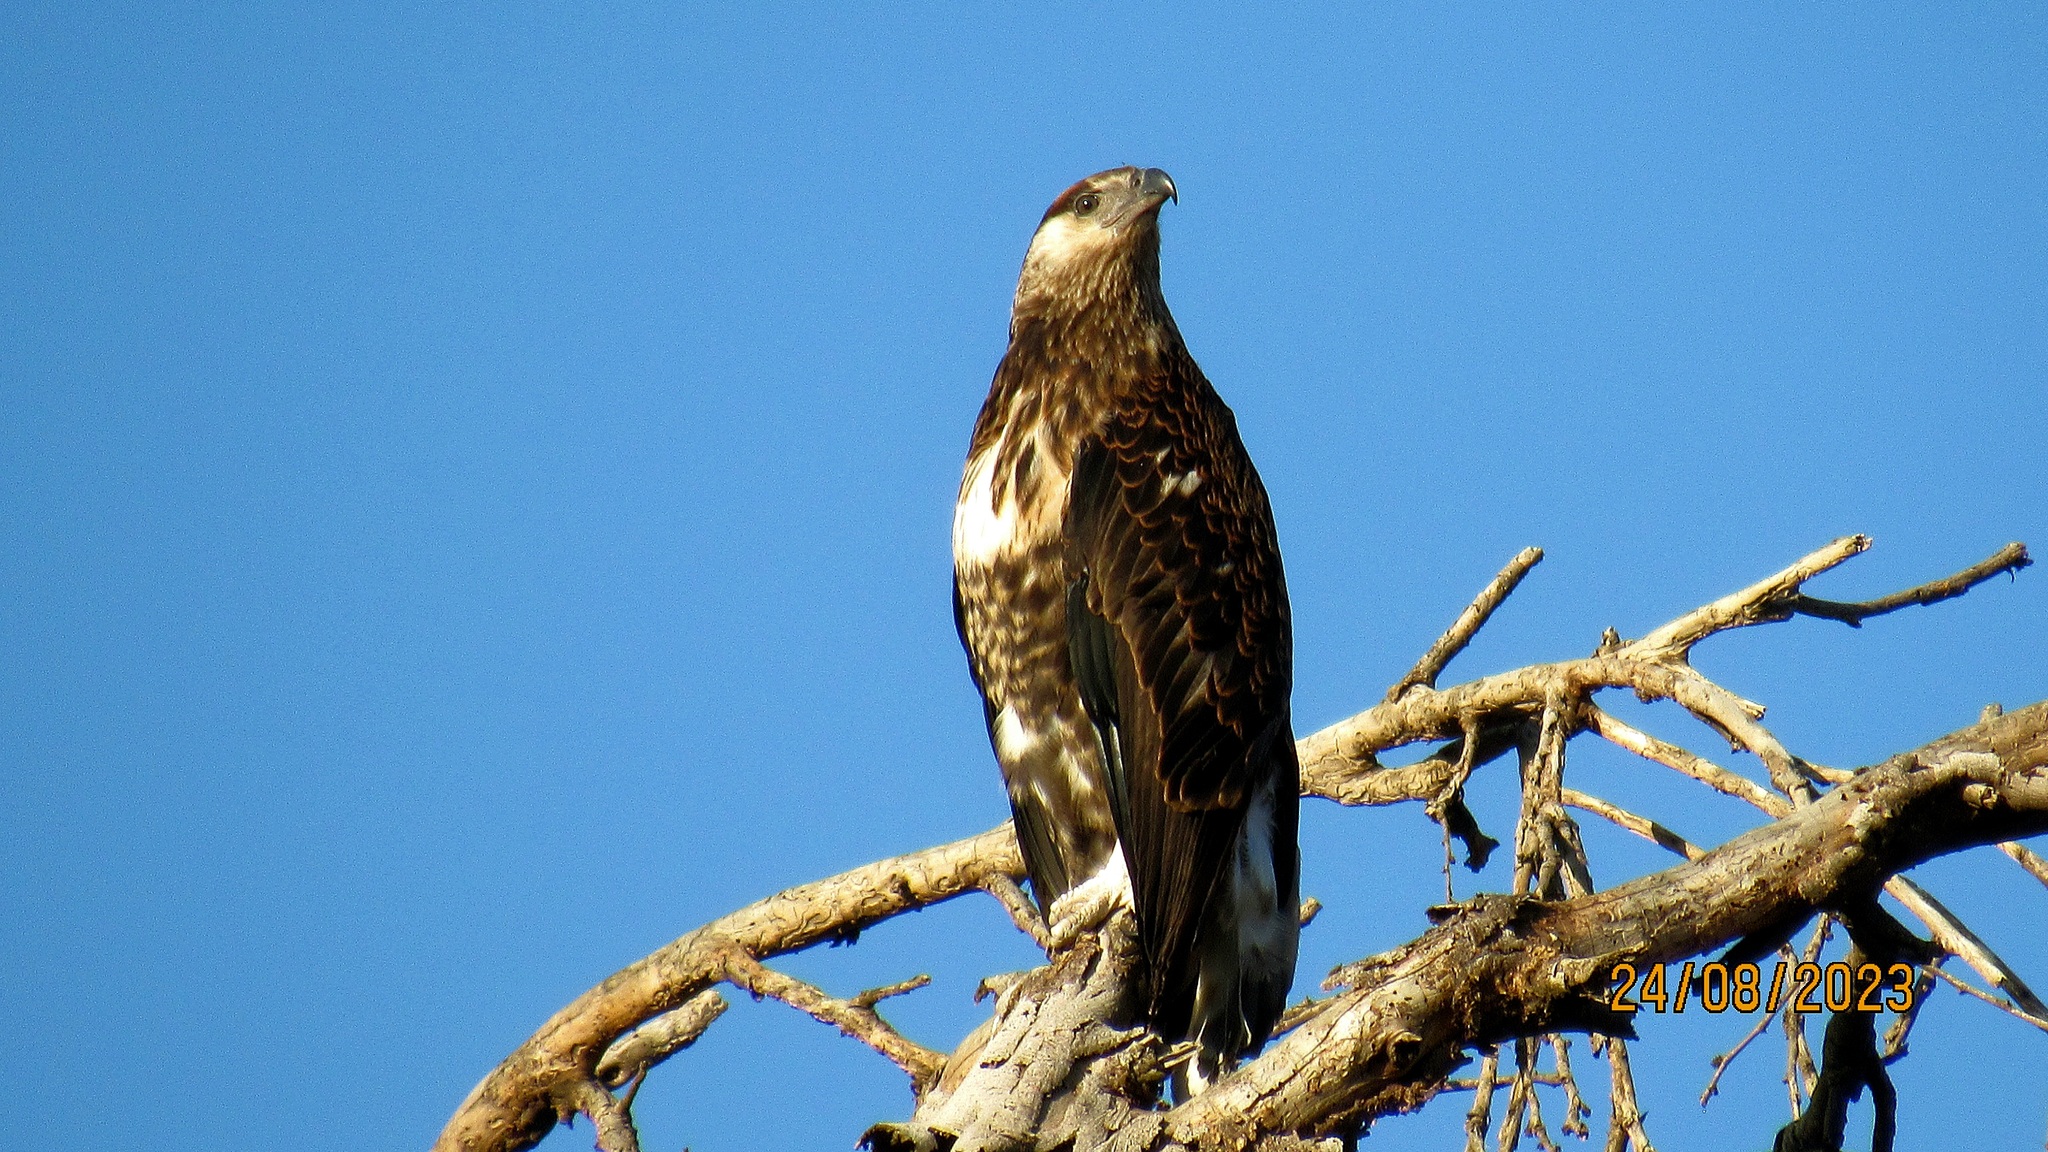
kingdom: Animalia
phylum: Chordata
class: Aves
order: Accipitriformes
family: Accipitridae
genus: Haliaeetus
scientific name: Haliaeetus vocifer
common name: African fish eagle
